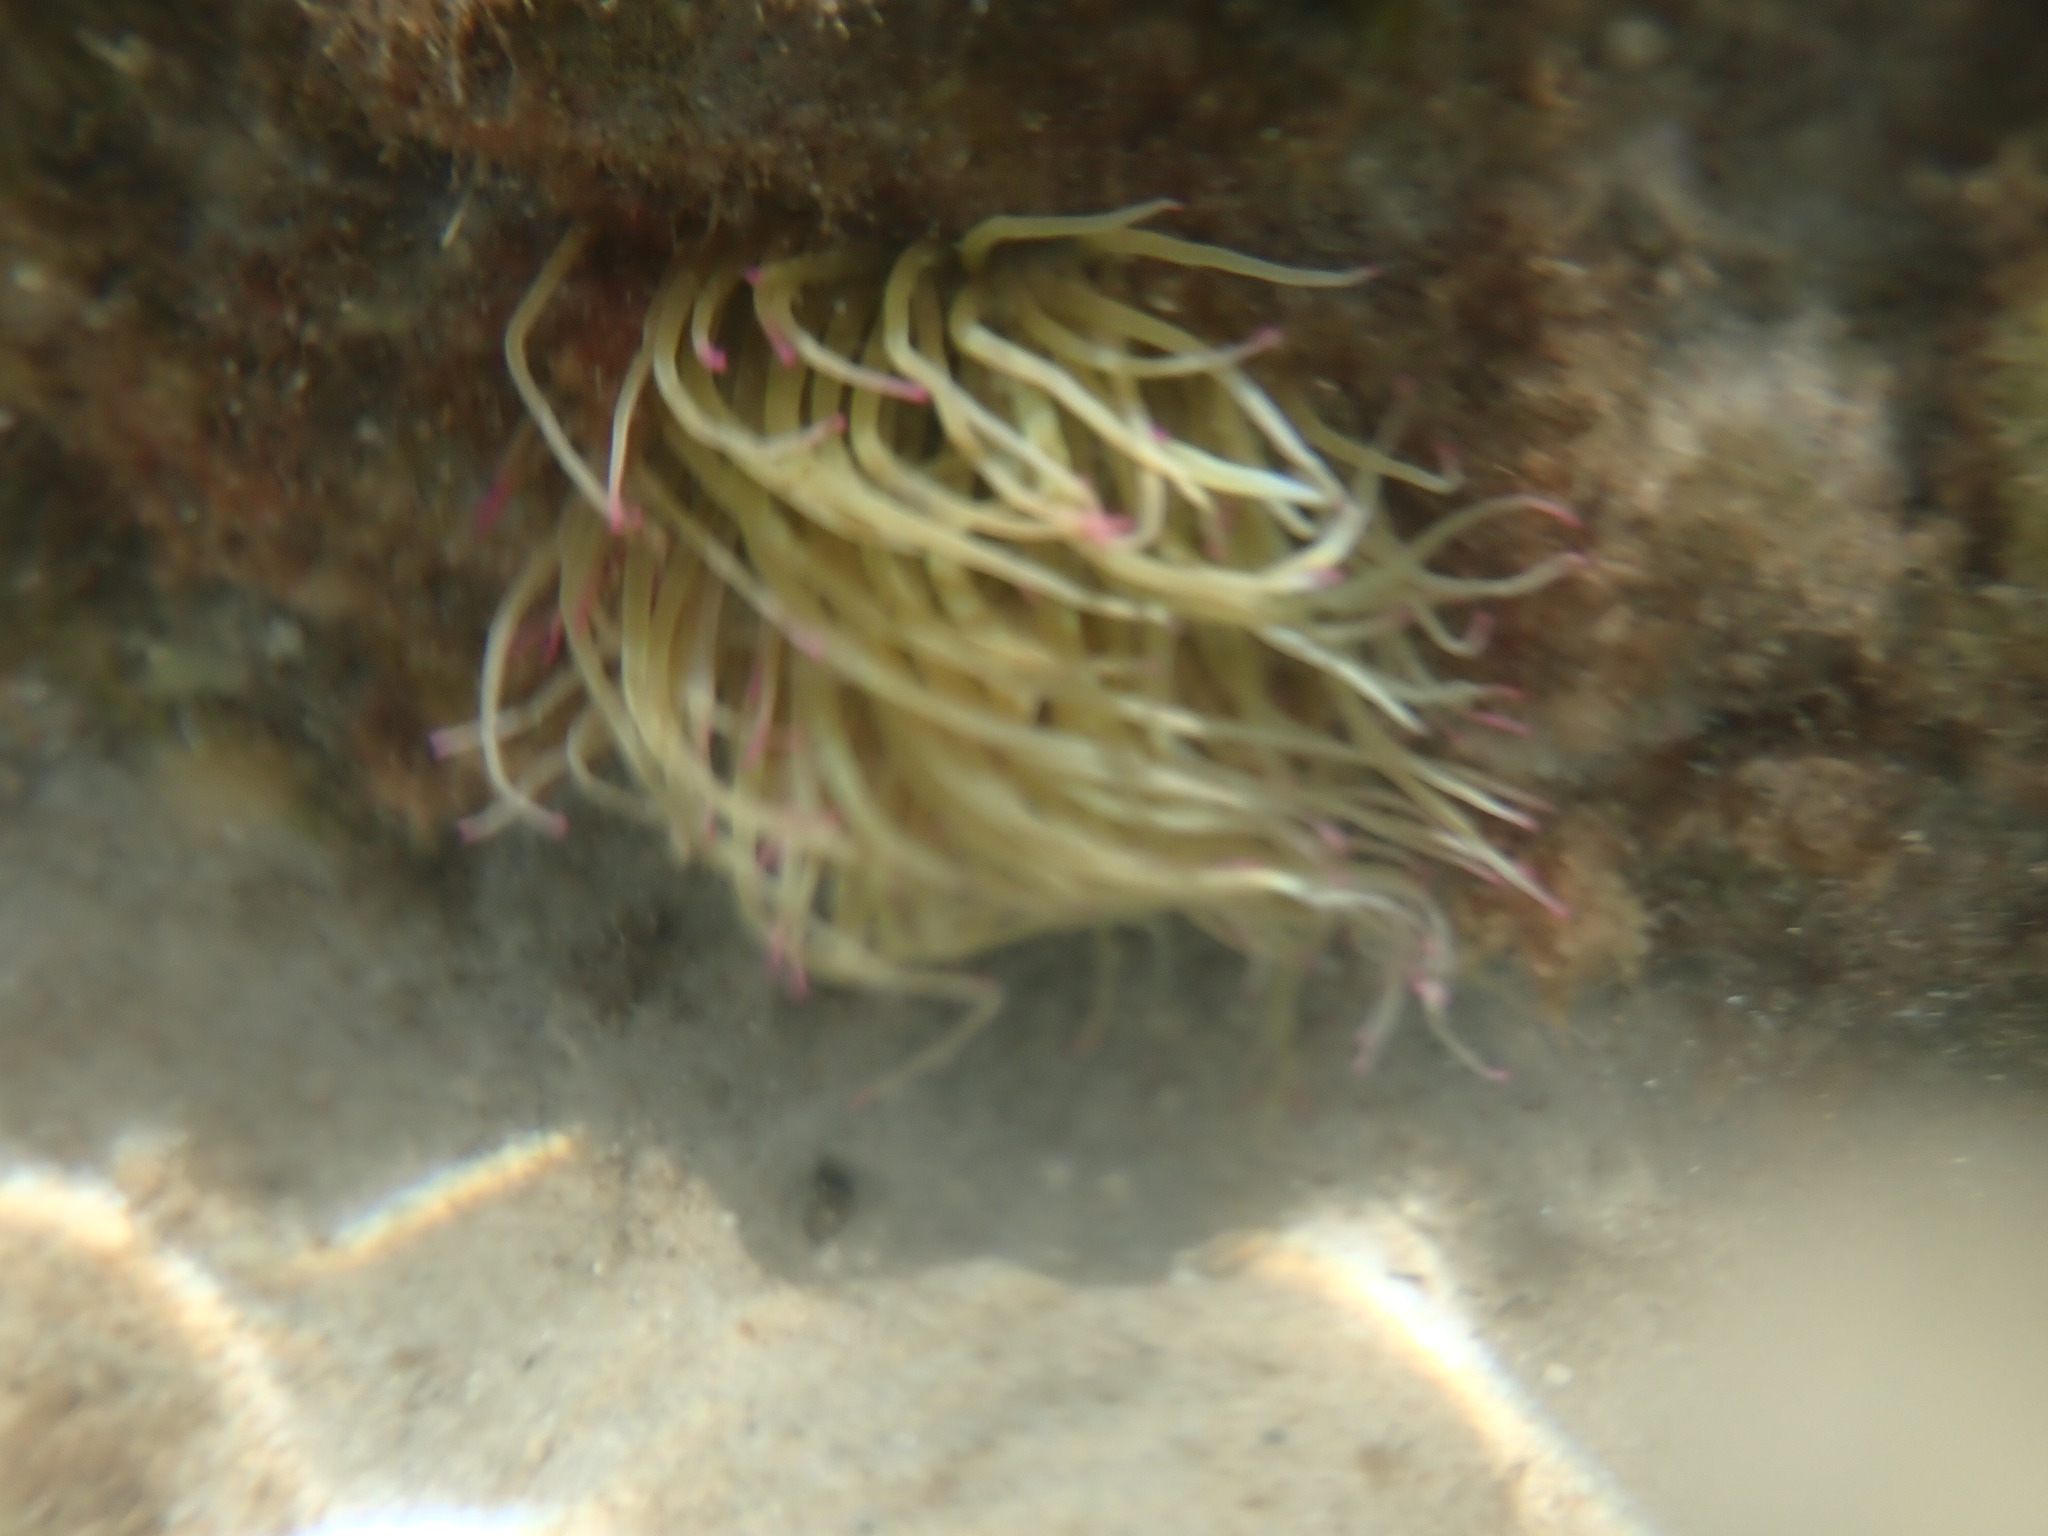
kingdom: Animalia
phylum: Cnidaria
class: Anthozoa
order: Actiniaria
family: Actiniidae
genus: Anemonia
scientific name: Anemonia viridis
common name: Snakelocks anemone
